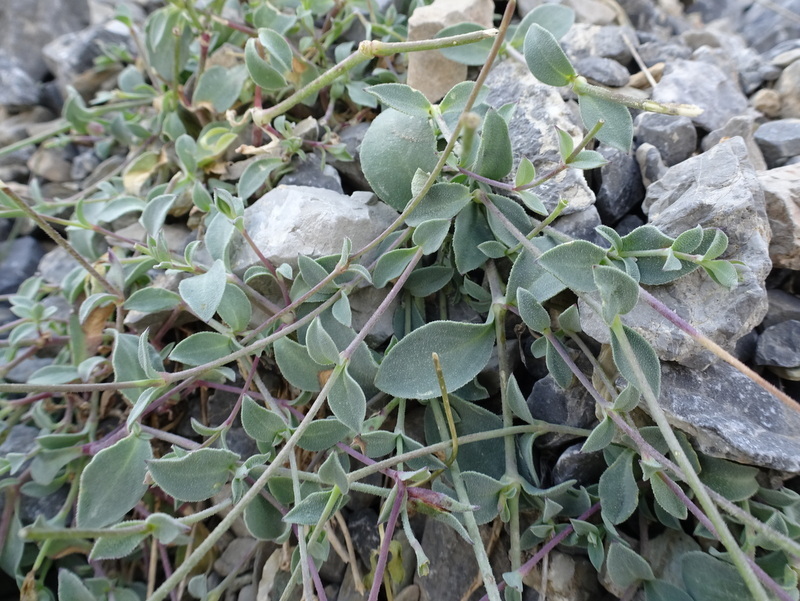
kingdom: Plantae
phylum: Tracheophyta
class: Magnoliopsida
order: Caryophyllales
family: Caryophyllaceae
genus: Silene
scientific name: Silene vulgaris
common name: Bladder campion
